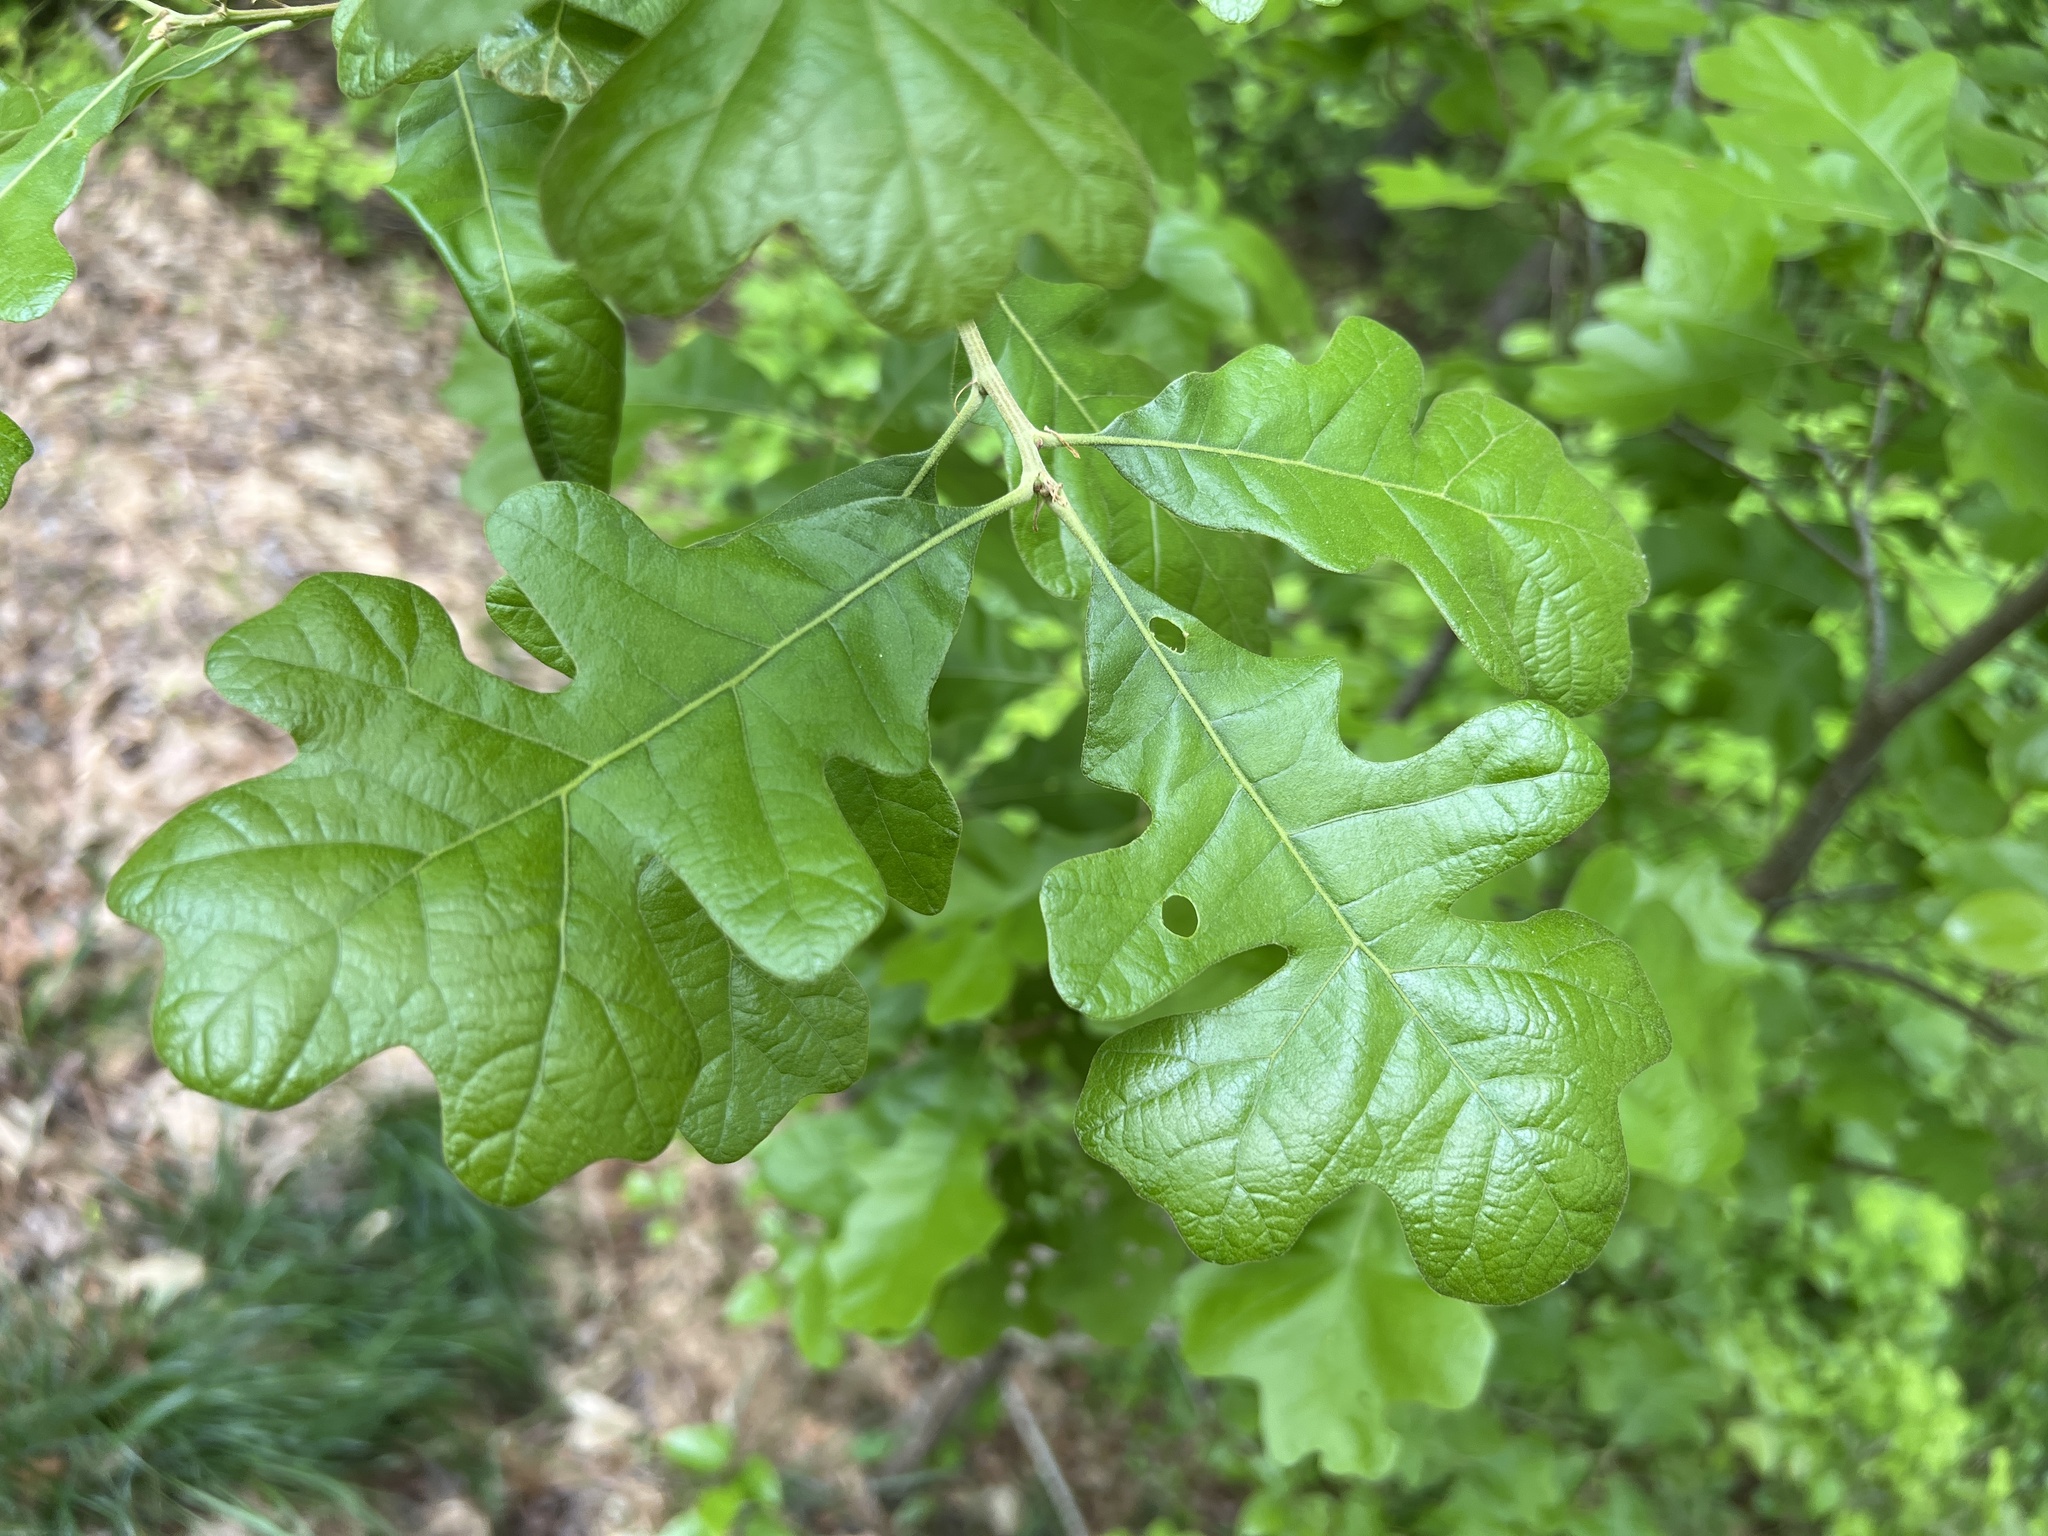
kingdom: Plantae
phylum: Tracheophyta
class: Magnoliopsida
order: Fagales
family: Fagaceae
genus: Quercus
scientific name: Quercus stellata
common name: Post oak
